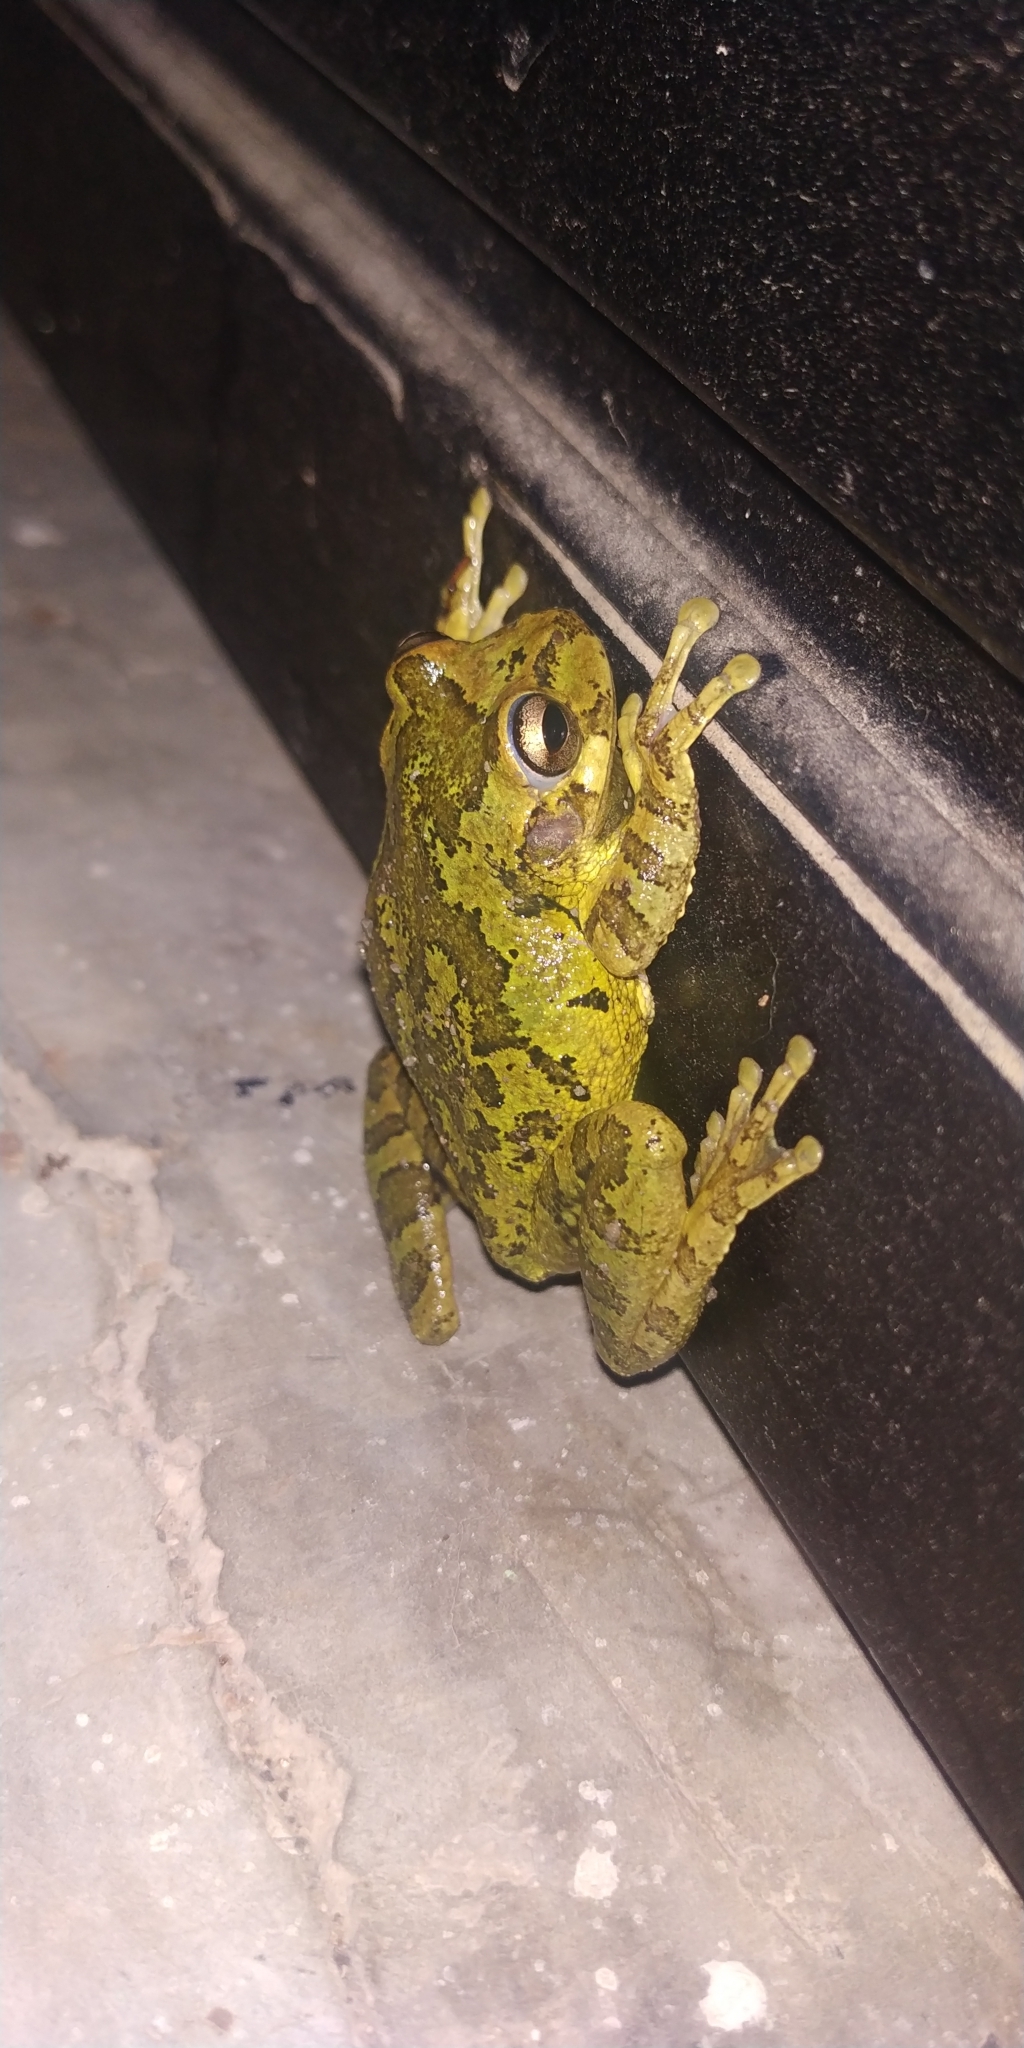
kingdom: Animalia
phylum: Chordata
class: Amphibia
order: Anura
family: Hylidae
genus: Smilisca
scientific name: Smilisca baudinii
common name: Mexican smilisca
